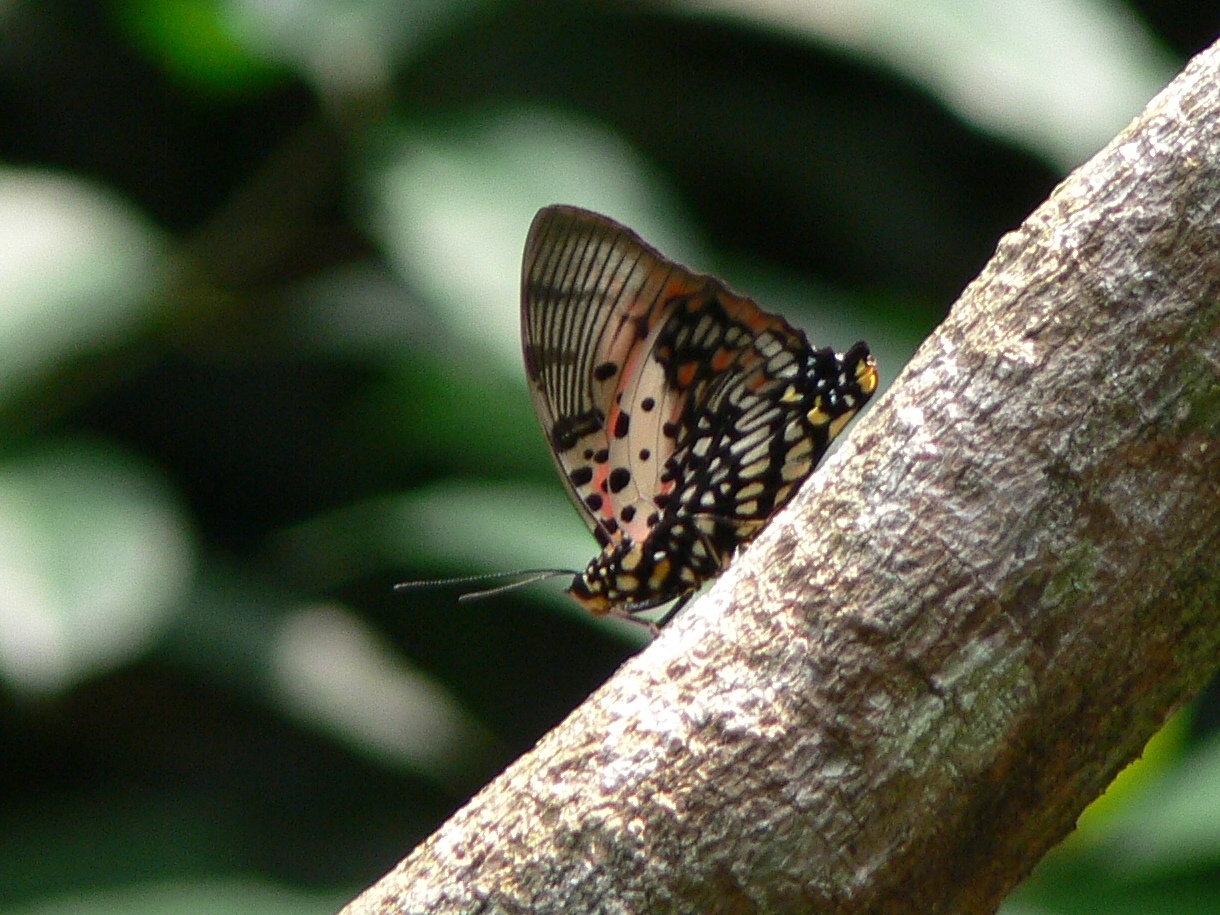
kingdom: Animalia
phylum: Arthropoda
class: Insecta
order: Lepidoptera
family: Nymphalidae
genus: Charaxes
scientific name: Charaxes zingha
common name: Shining red charaxes
